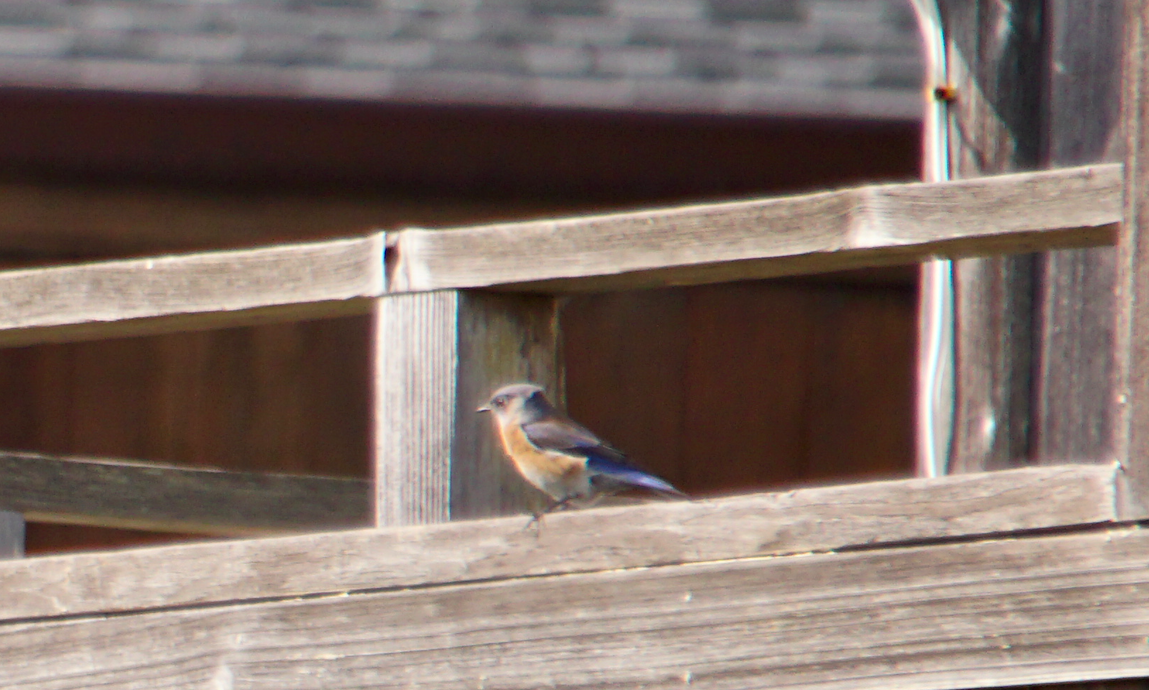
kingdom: Animalia
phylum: Chordata
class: Aves
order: Passeriformes
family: Turdidae
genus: Sialia
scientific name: Sialia mexicana
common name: Western bluebird
